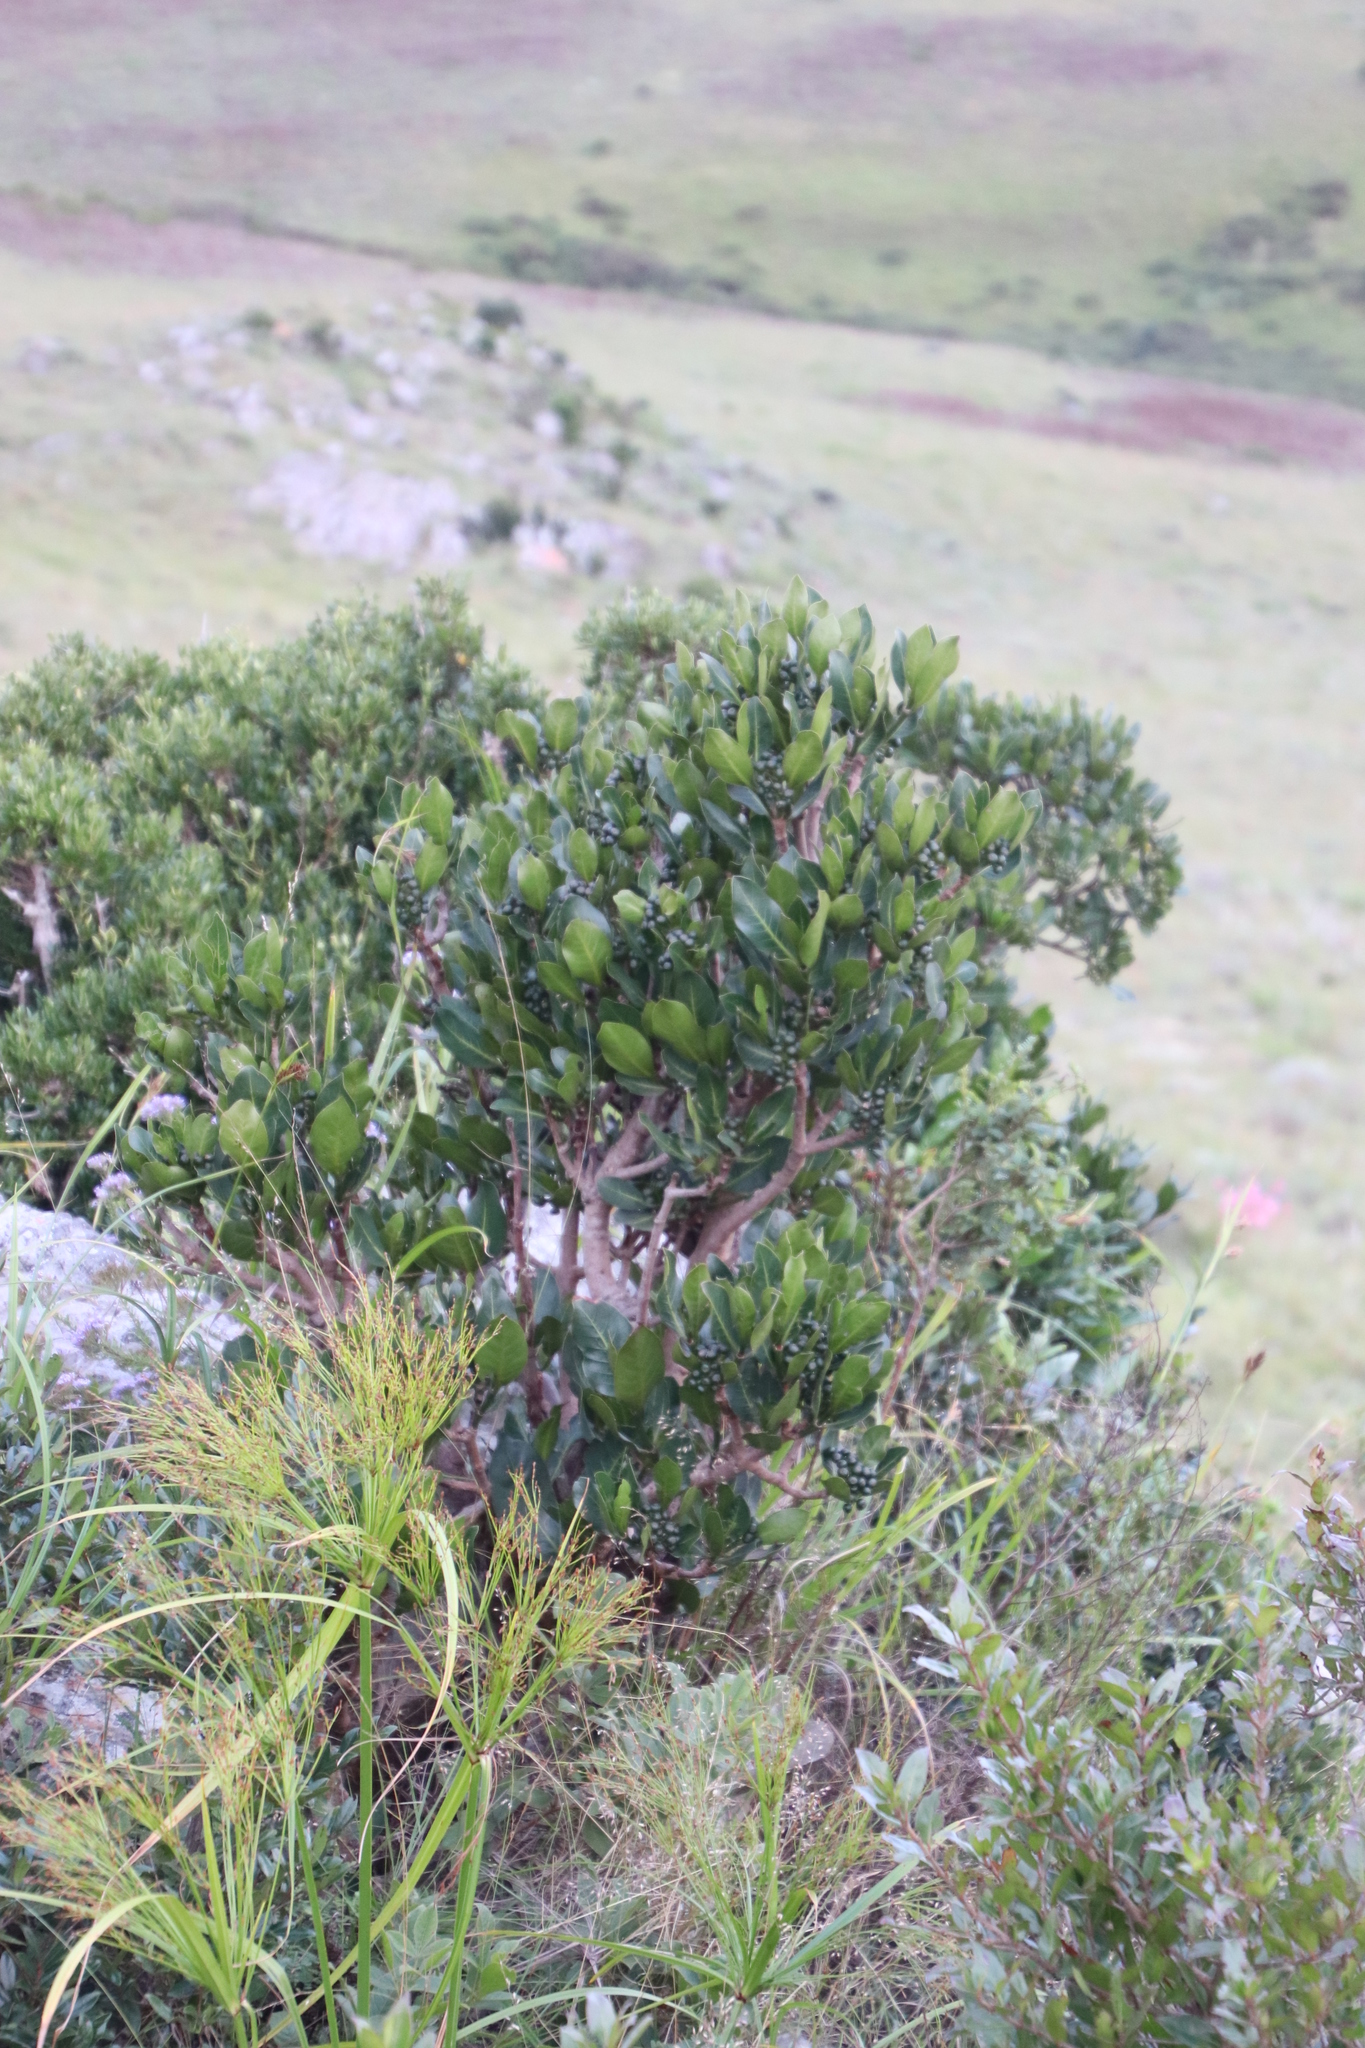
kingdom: Plantae
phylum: Tracheophyta
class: Magnoliopsida
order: Gentianales
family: Rubiaceae
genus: Psychotria
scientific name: Psychotria
